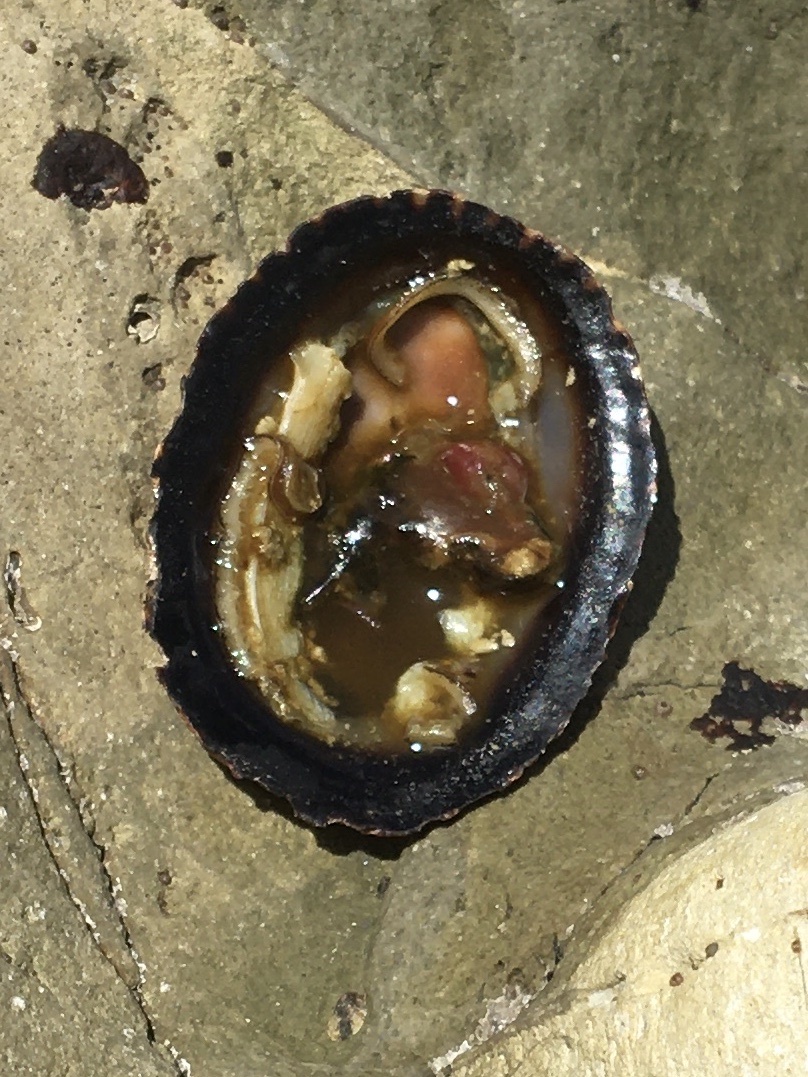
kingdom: Animalia
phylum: Mollusca
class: Gastropoda
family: Lottiidae
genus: Lottia
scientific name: Lottia gigantea
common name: Owl limpet
